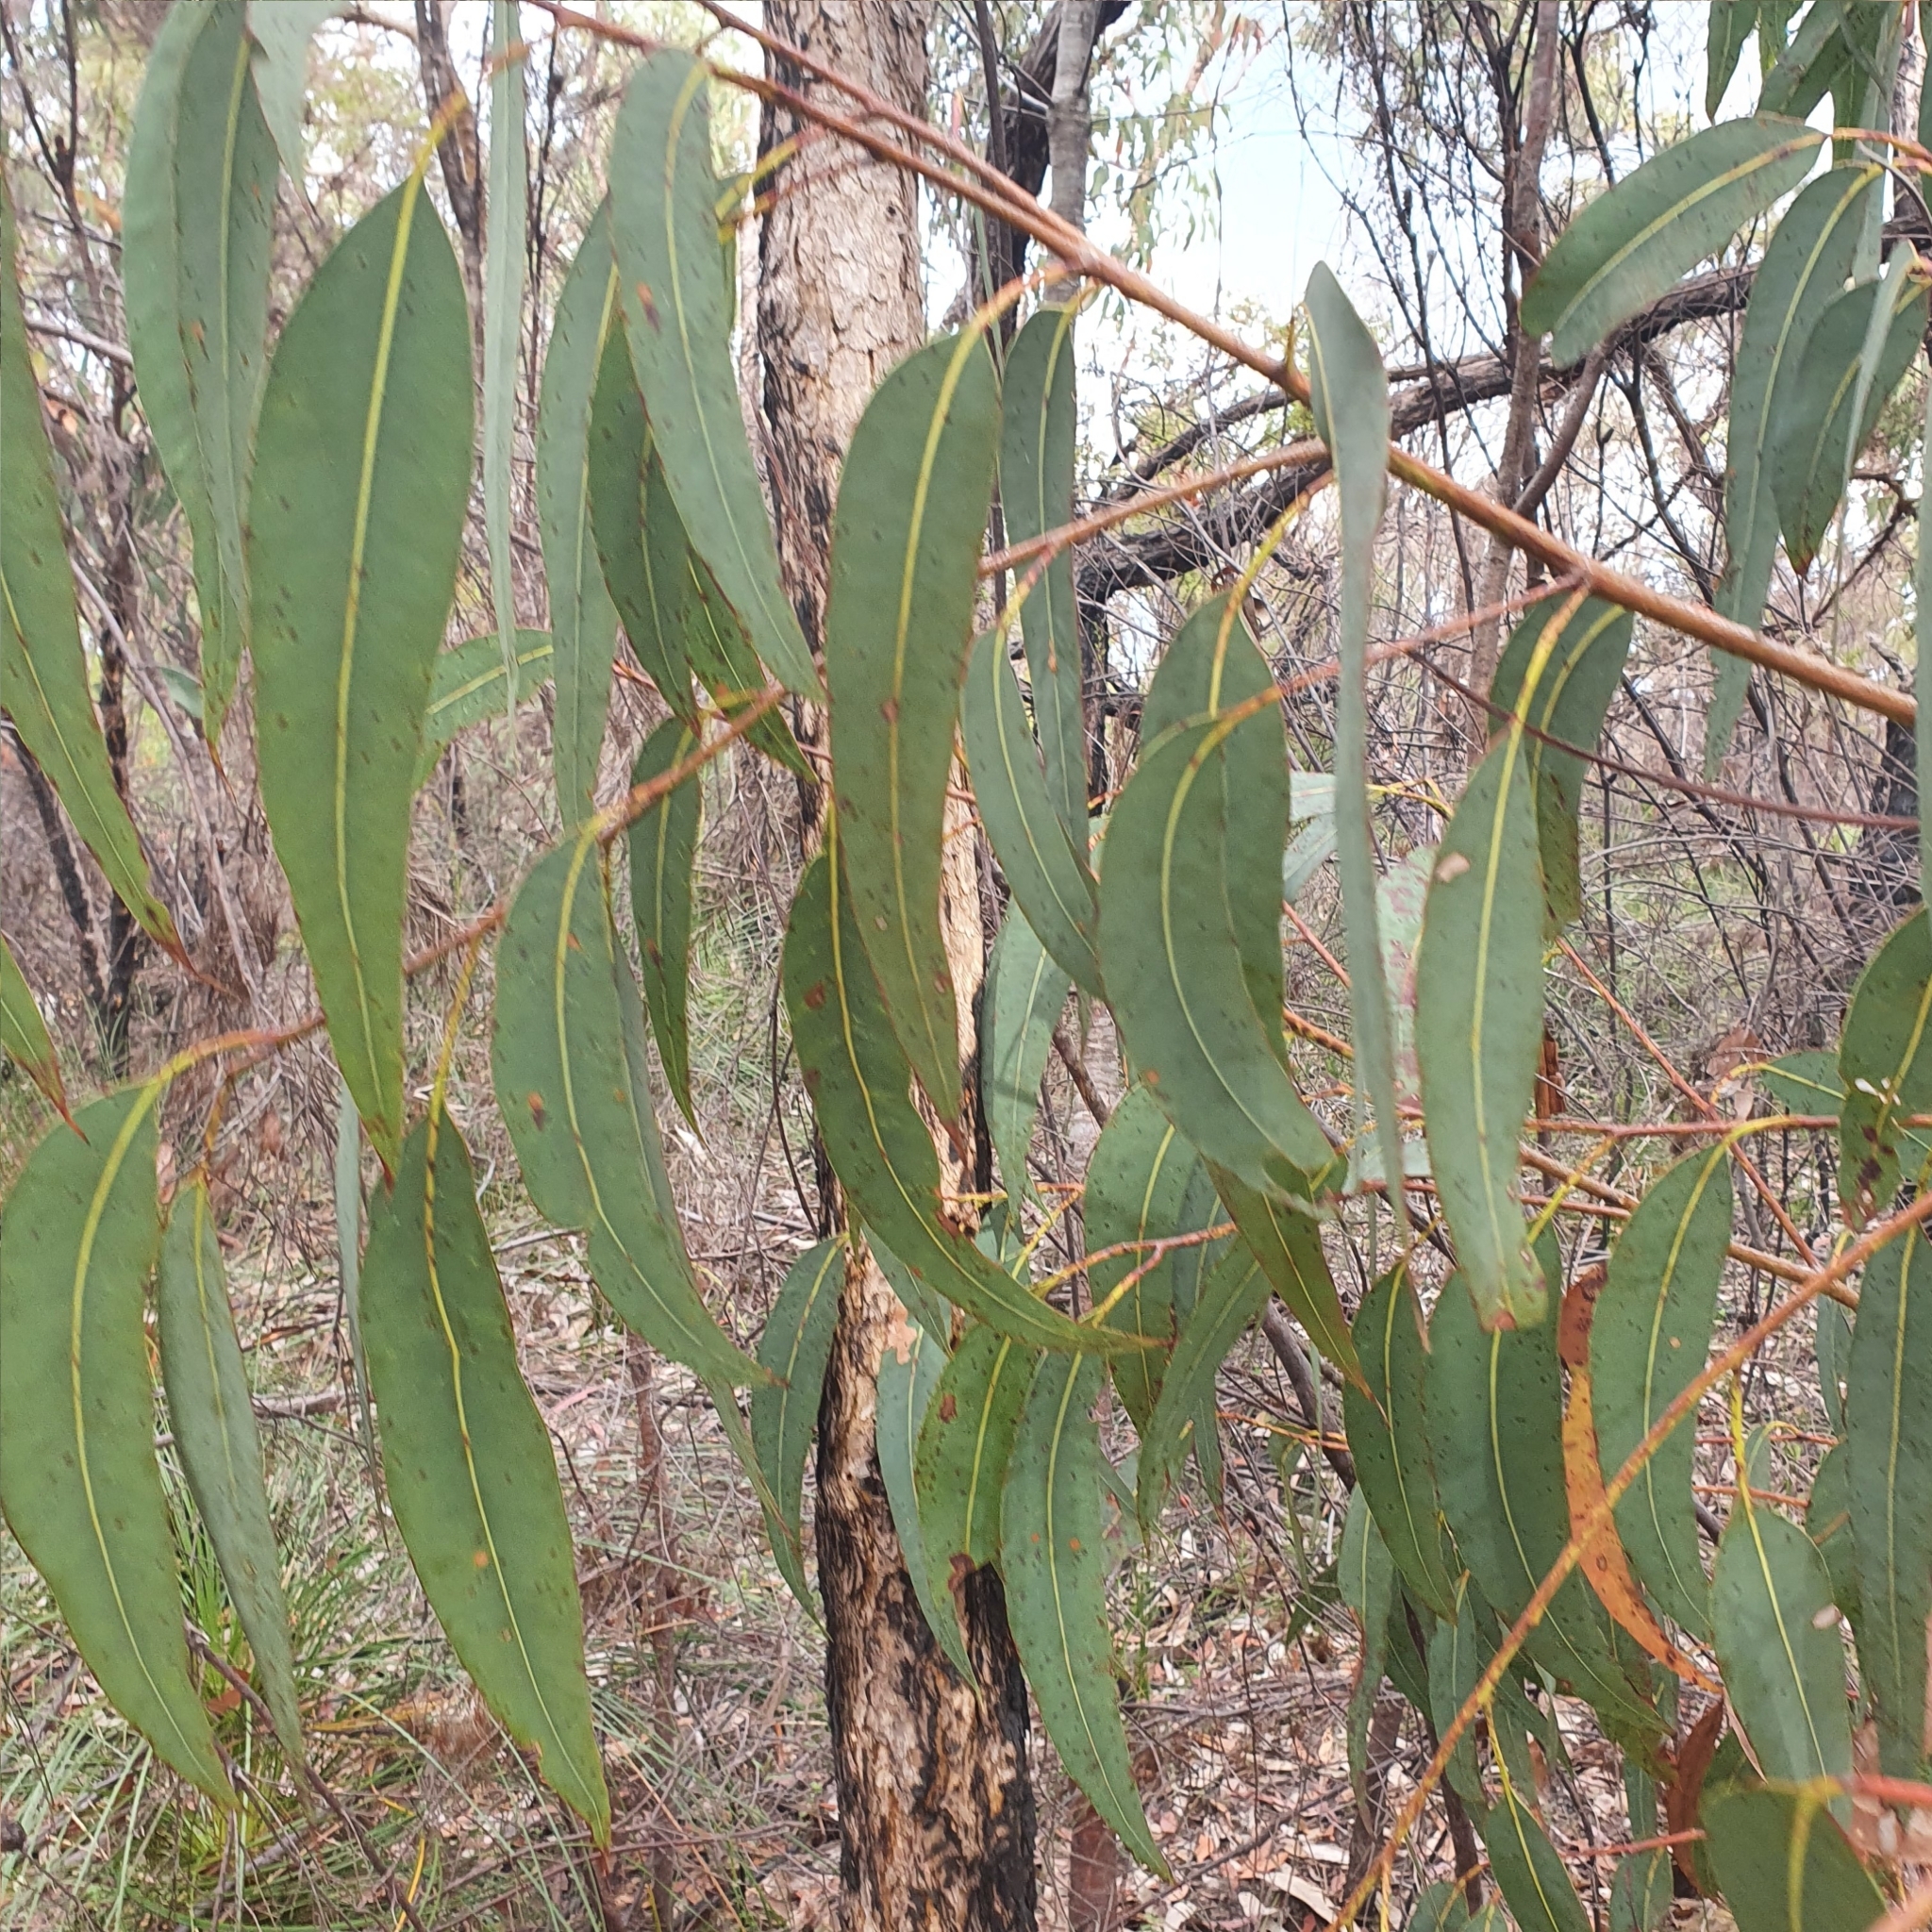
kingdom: Plantae
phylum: Tracheophyta
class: Magnoliopsida
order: Myrtales
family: Myrtaceae
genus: Corymbia
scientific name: Corymbia eximia
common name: Yellow bloodwood
